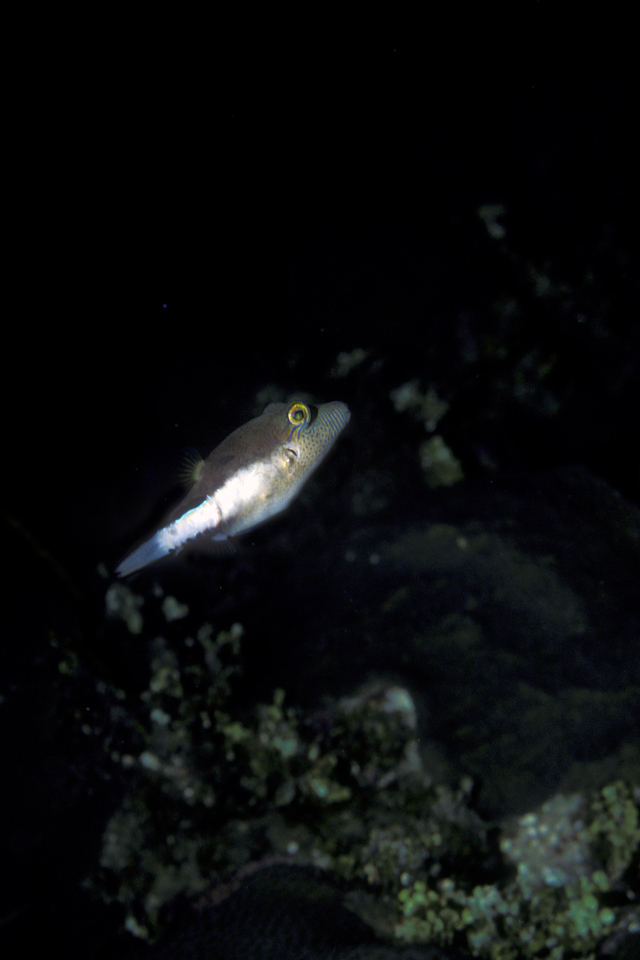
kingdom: Animalia
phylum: Chordata
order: Tetraodontiformes
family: Tetraodontidae
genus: Canthigaster
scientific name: Canthigaster rostrata
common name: Caribbean sharpnose-puffer
